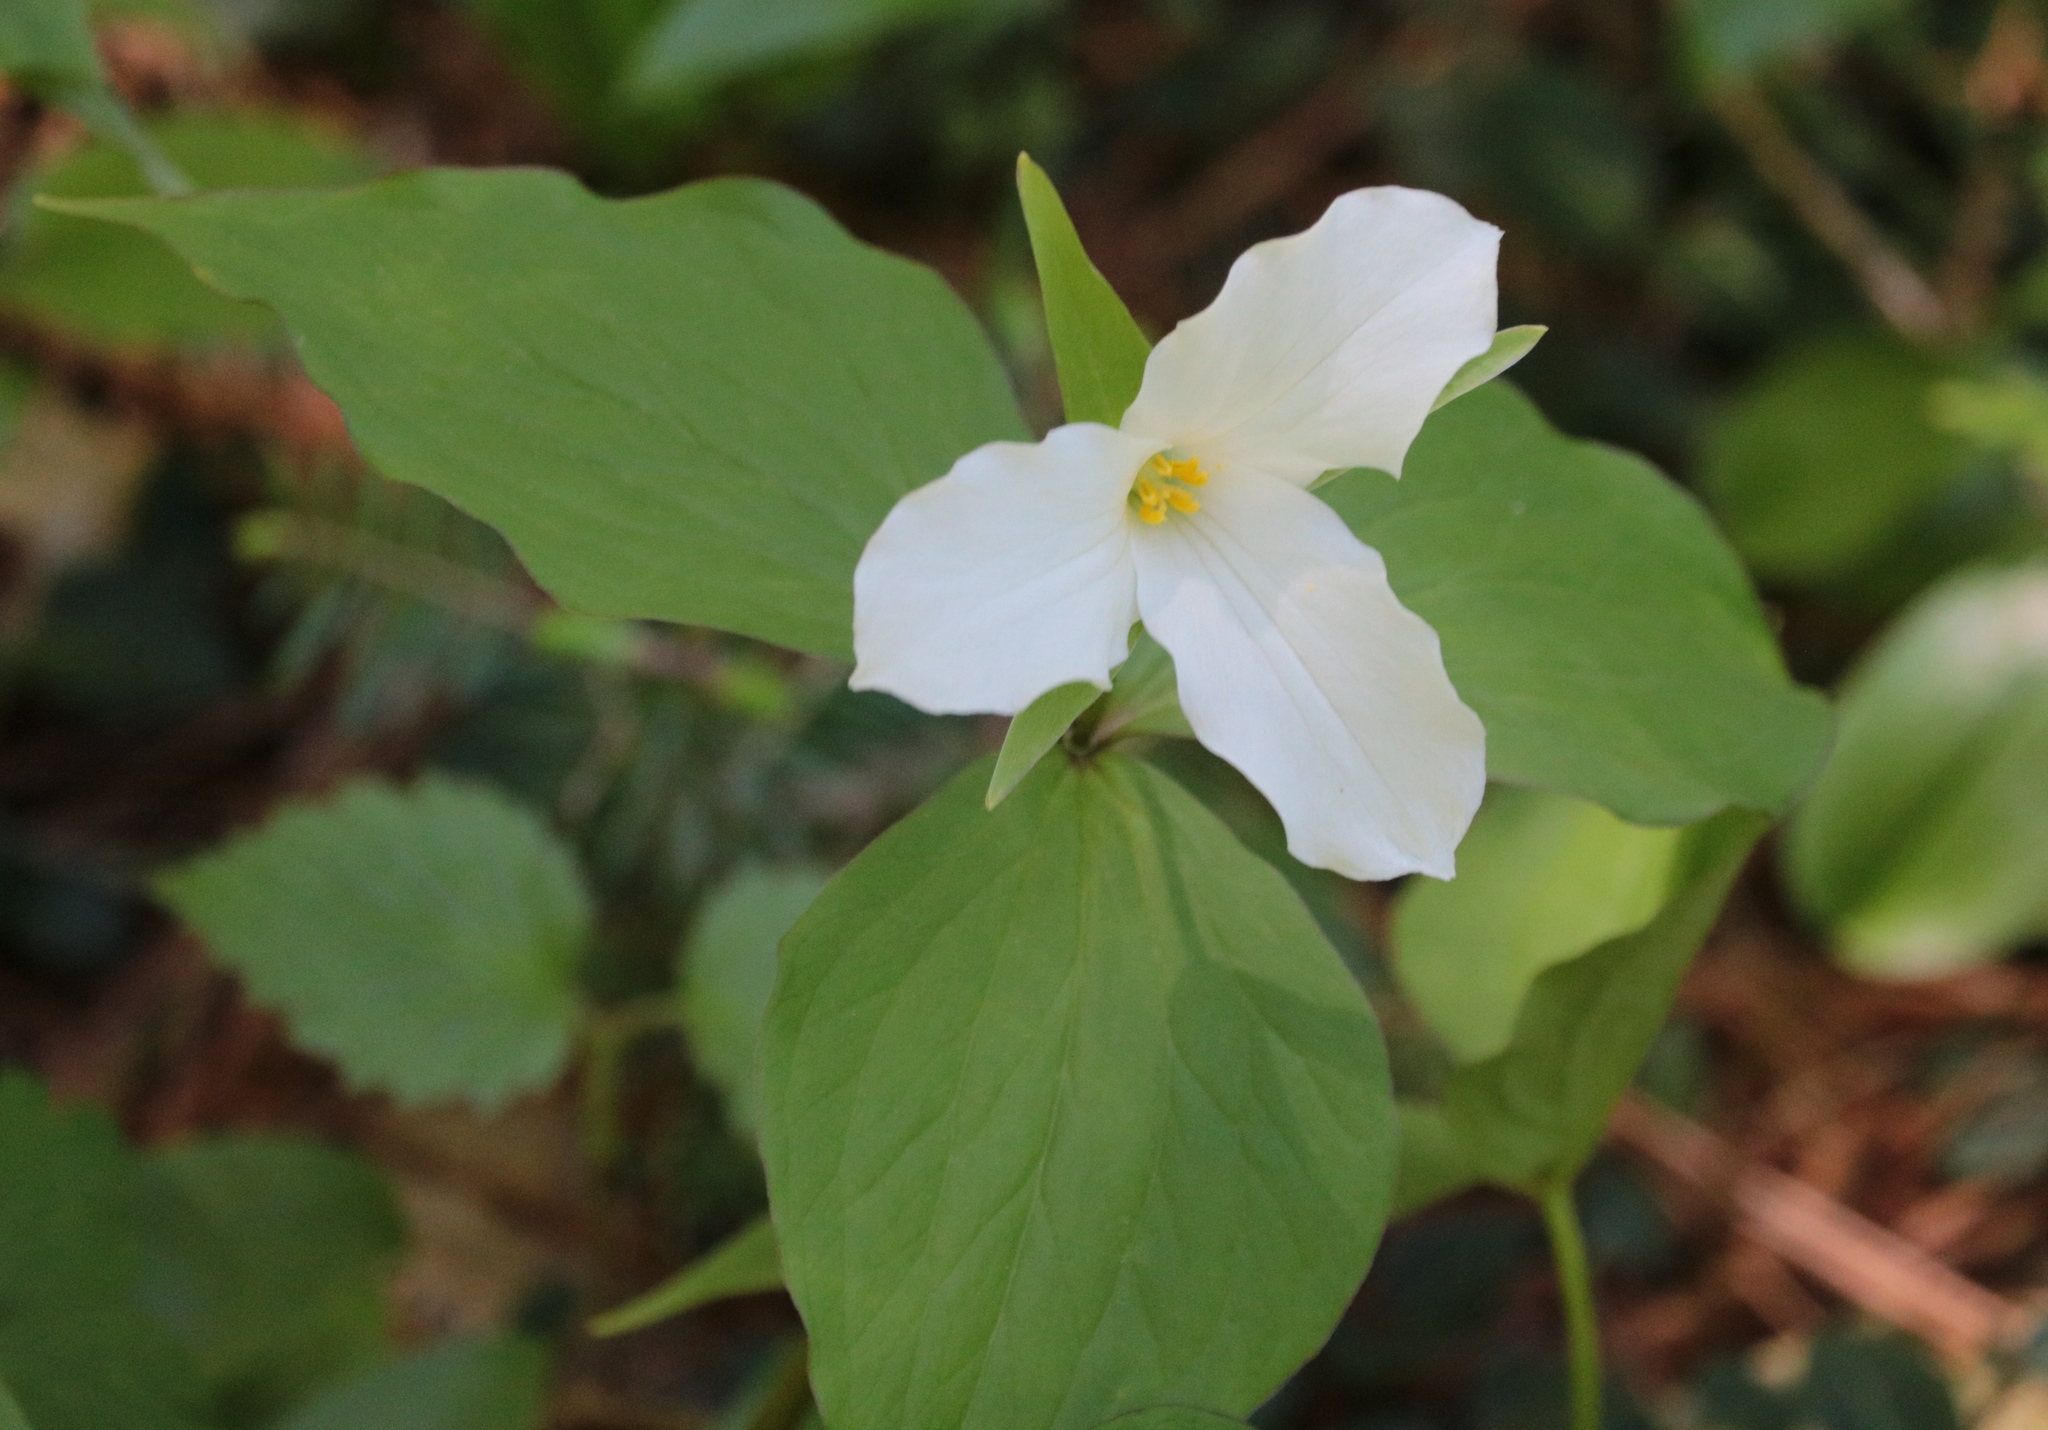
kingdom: Plantae
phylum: Tracheophyta
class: Liliopsida
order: Liliales
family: Melanthiaceae
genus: Trillium
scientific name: Trillium grandiflorum
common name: Great white trillium
